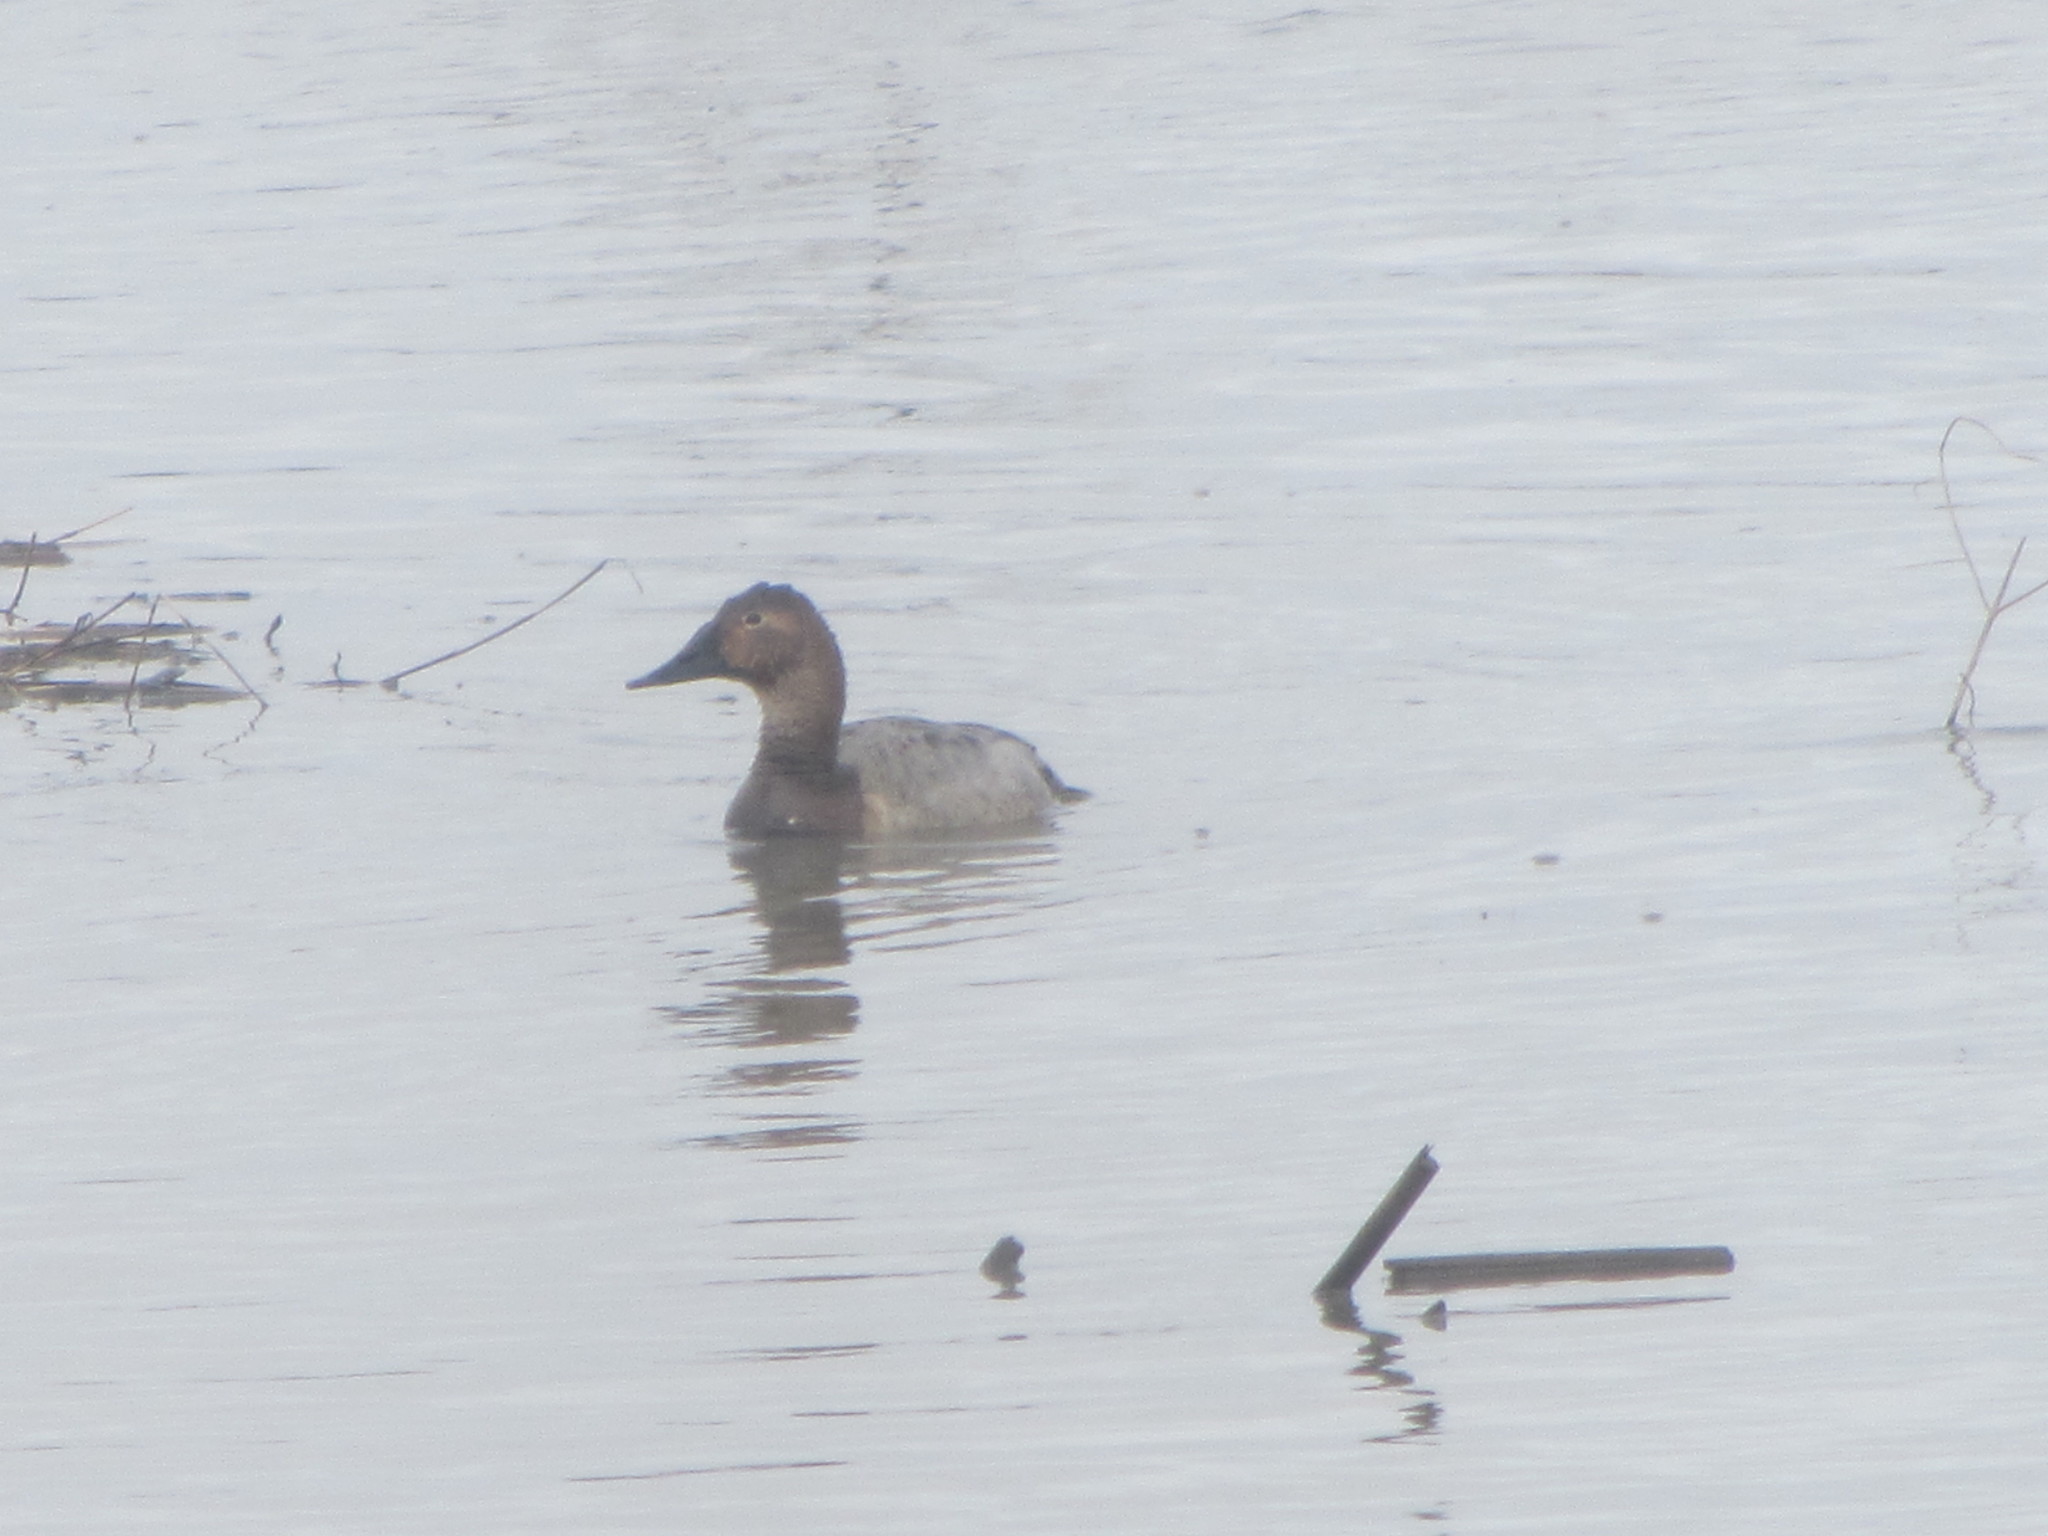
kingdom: Animalia
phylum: Chordata
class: Aves
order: Anseriformes
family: Anatidae
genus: Aythya
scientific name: Aythya valisineria
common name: Canvasback
